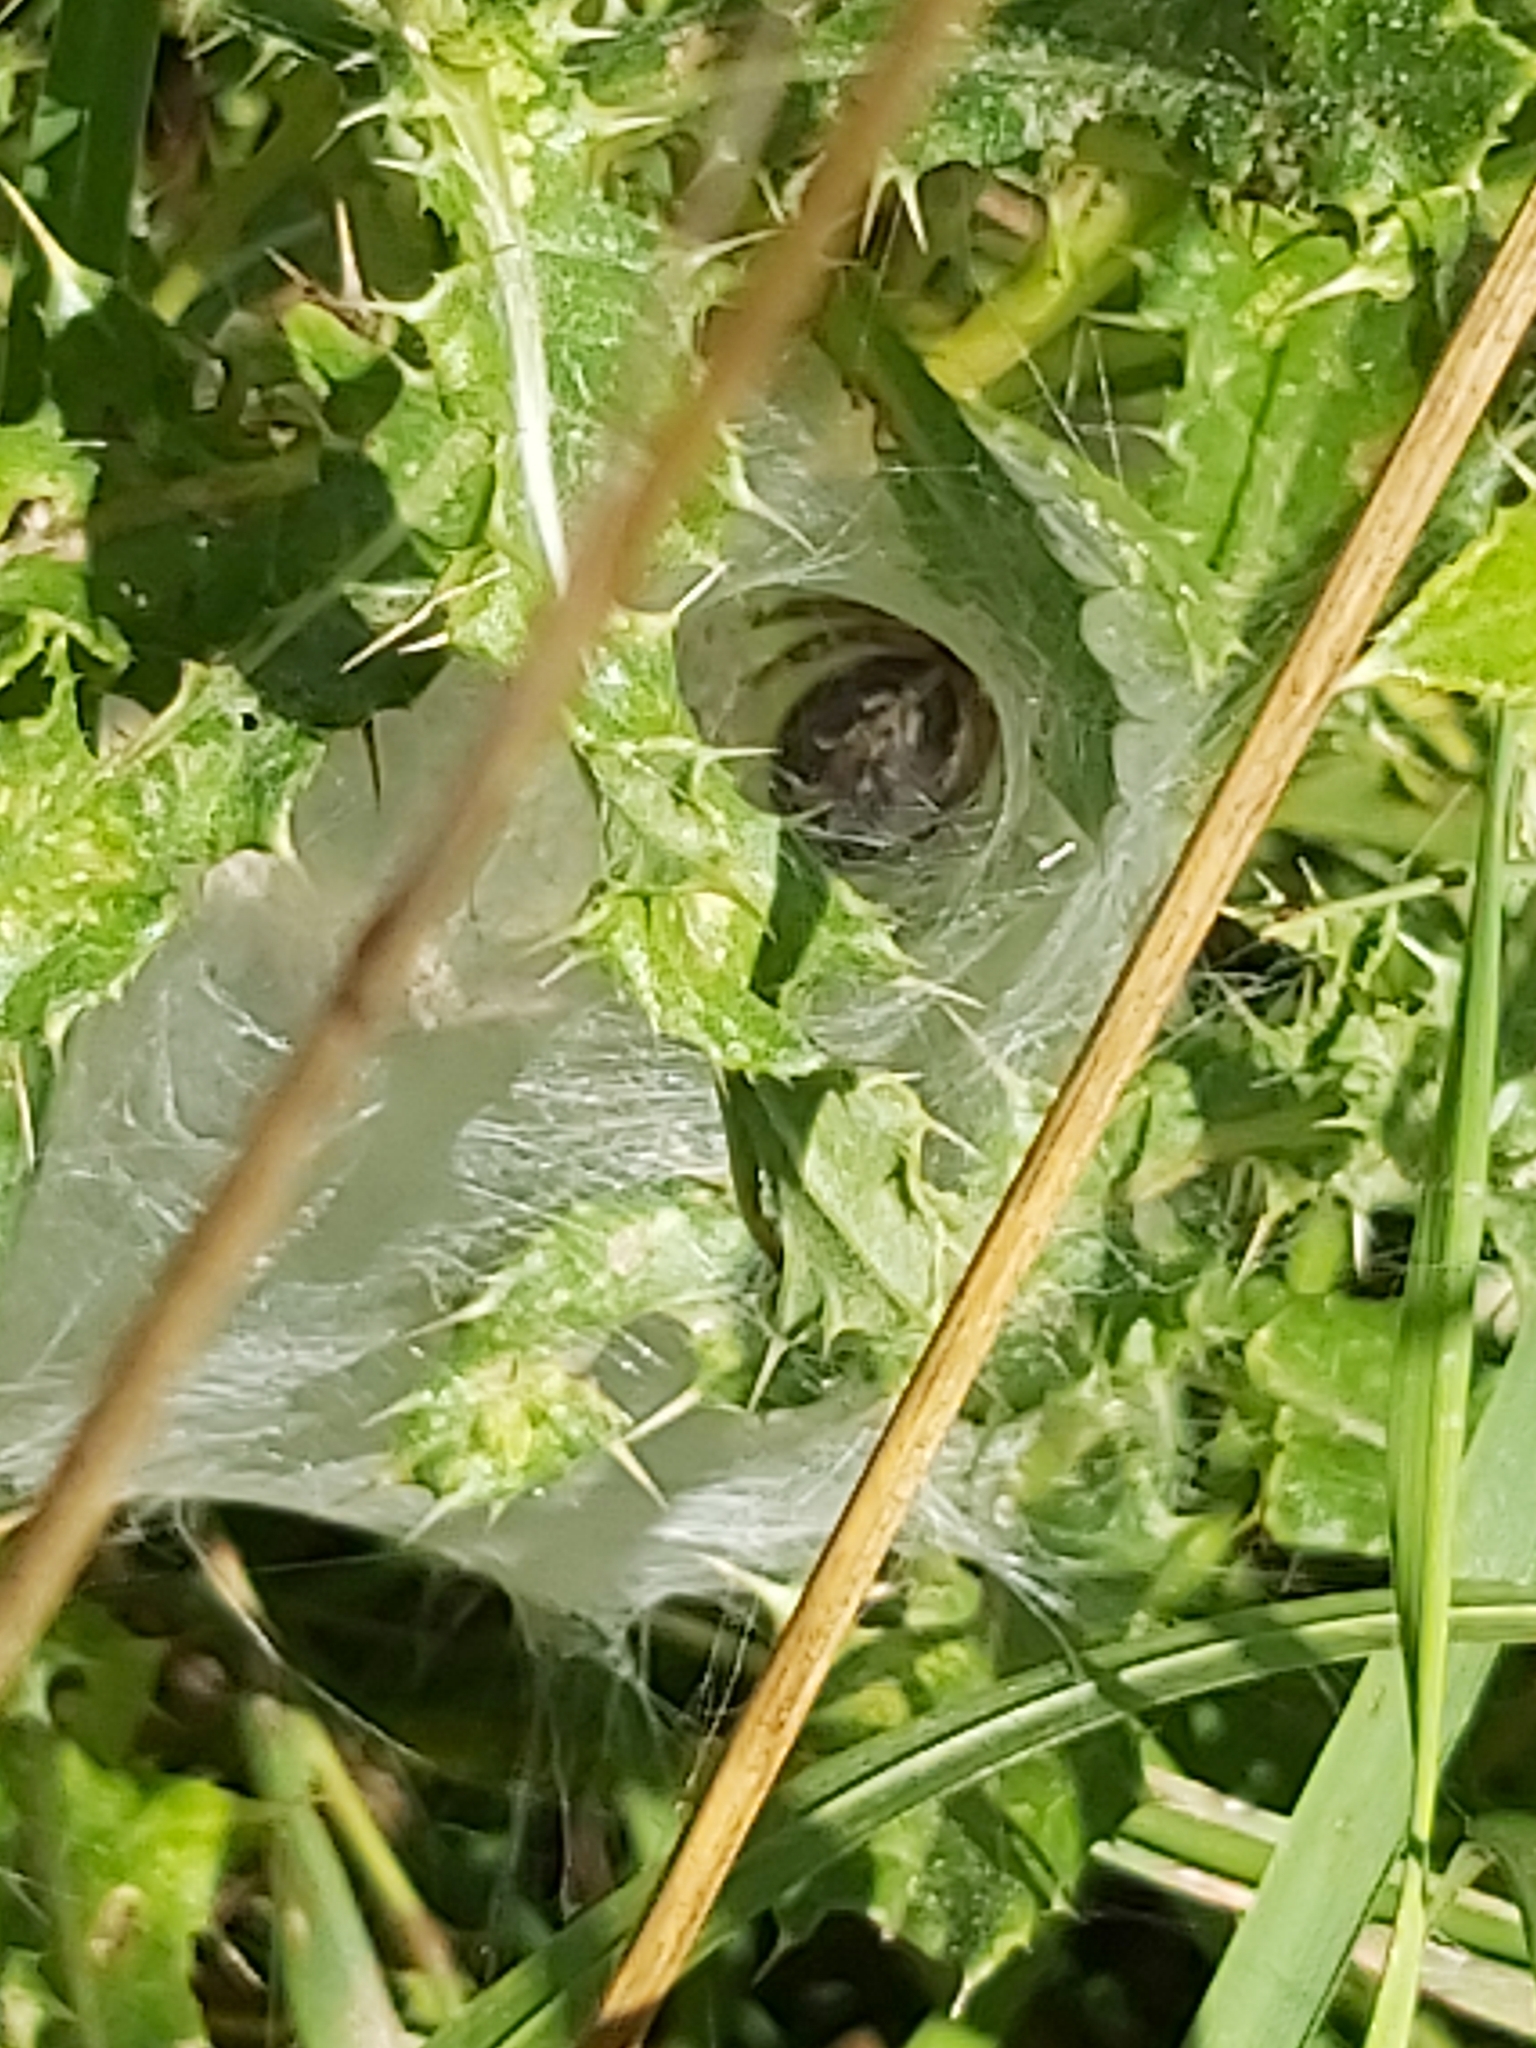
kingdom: Animalia
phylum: Arthropoda
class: Arachnida
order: Araneae
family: Agelenidae
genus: Agelena
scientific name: Agelena labyrinthica
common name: Labyrinth spider
